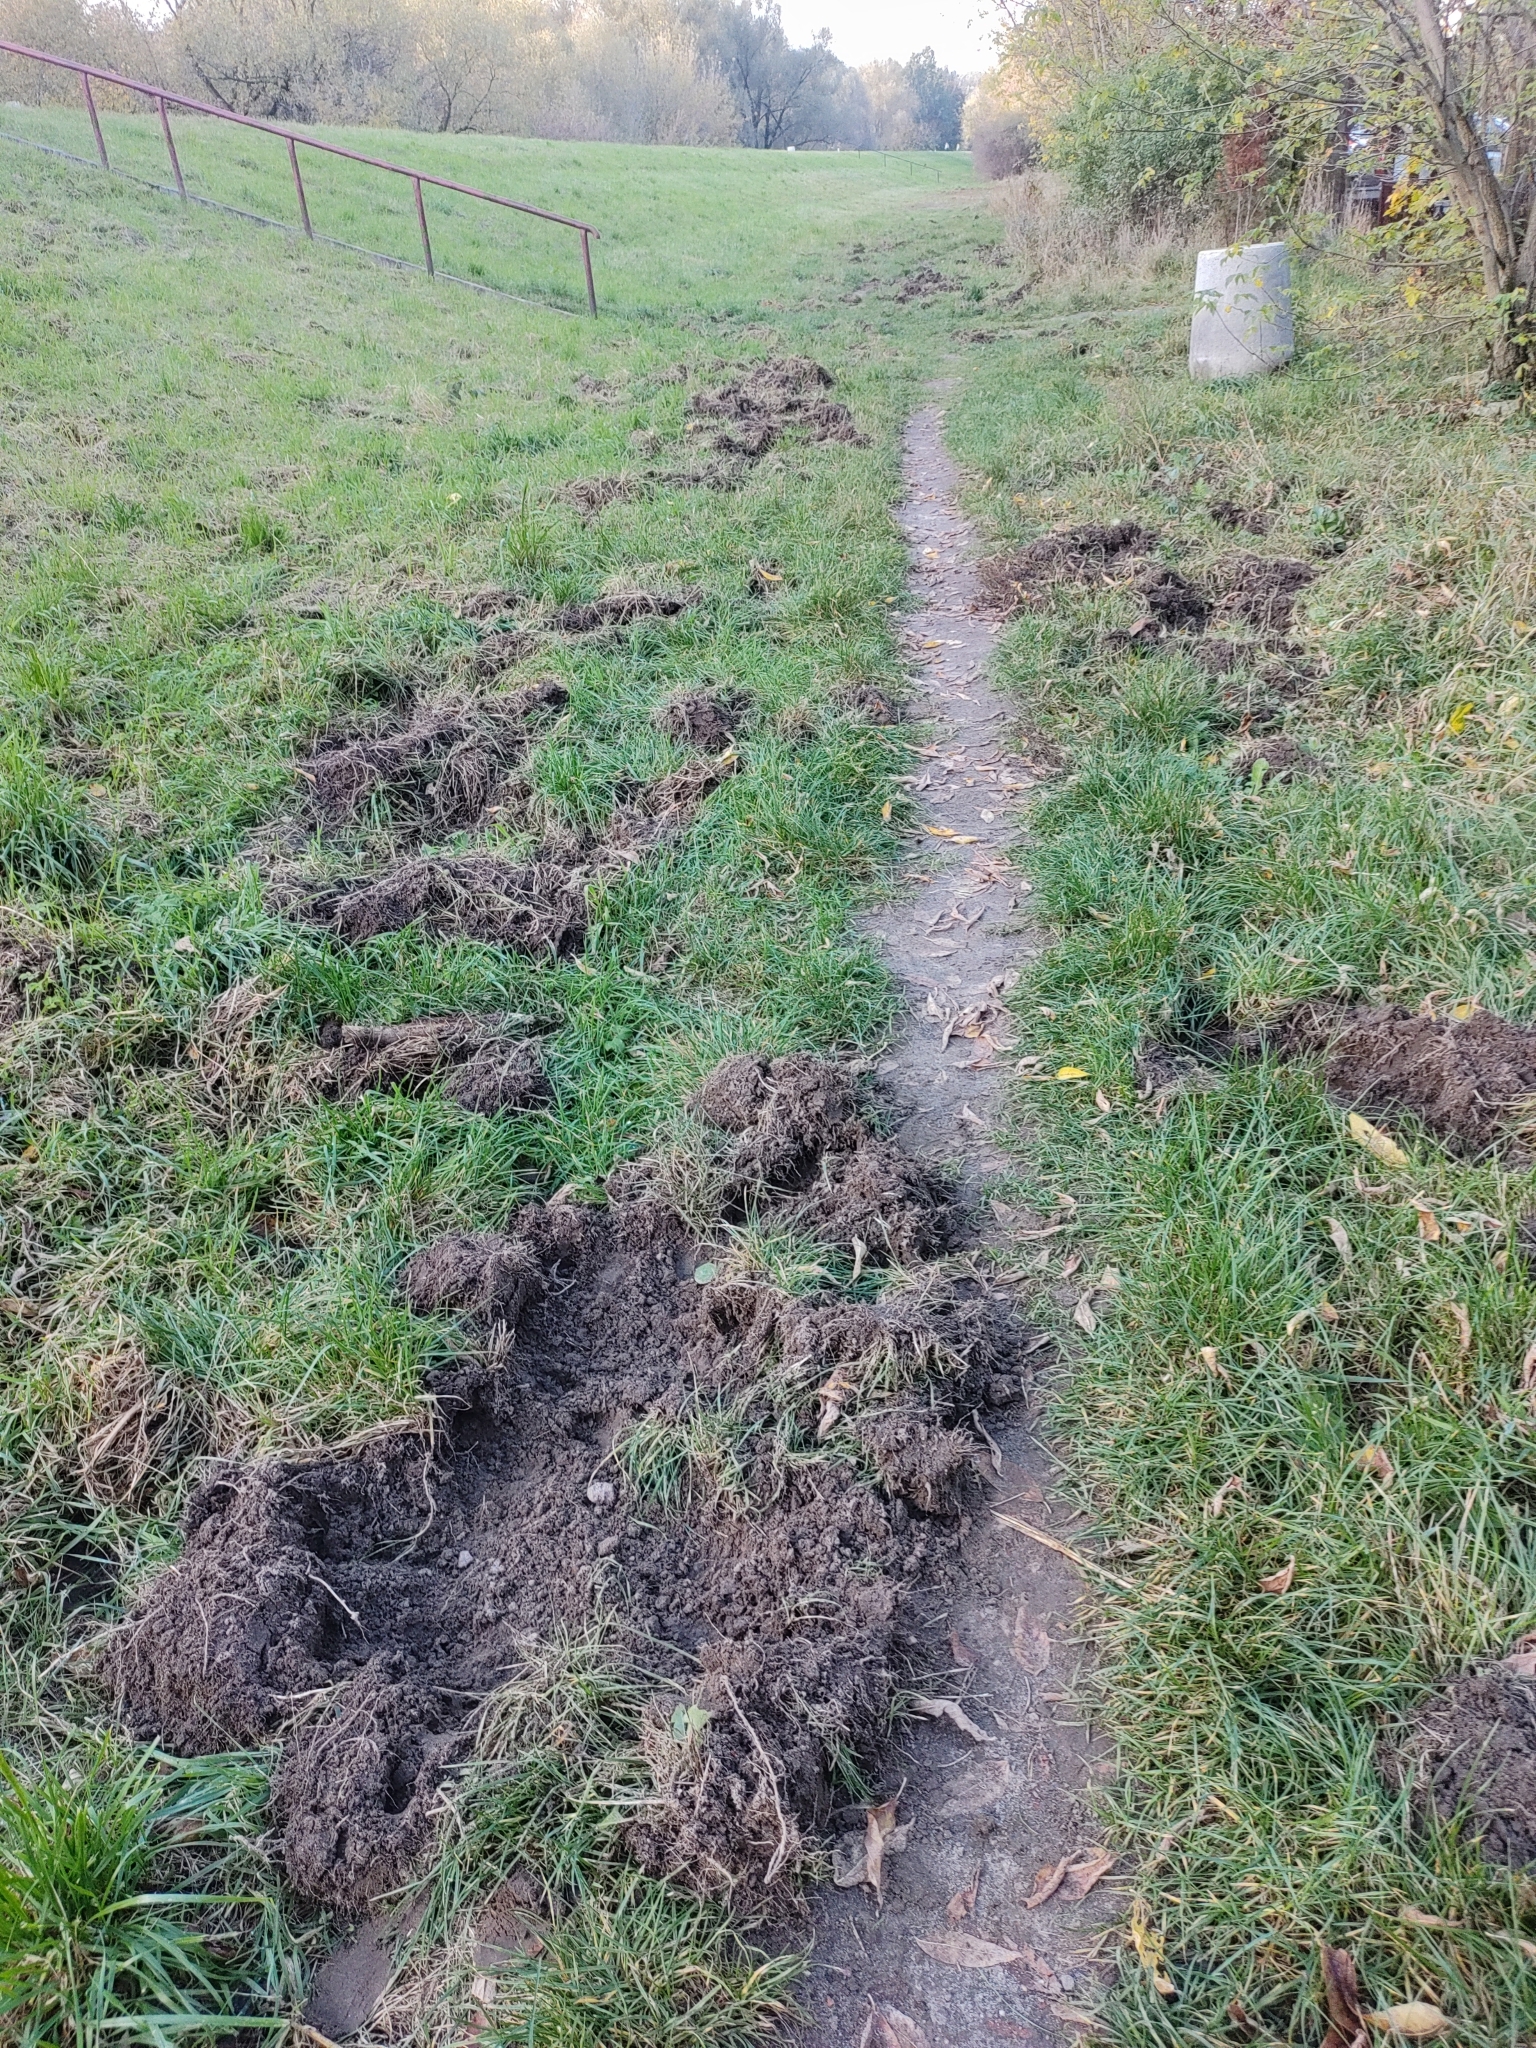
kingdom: Animalia
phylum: Chordata
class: Mammalia
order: Artiodactyla
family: Suidae
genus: Sus
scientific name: Sus scrofa
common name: Wild boar
